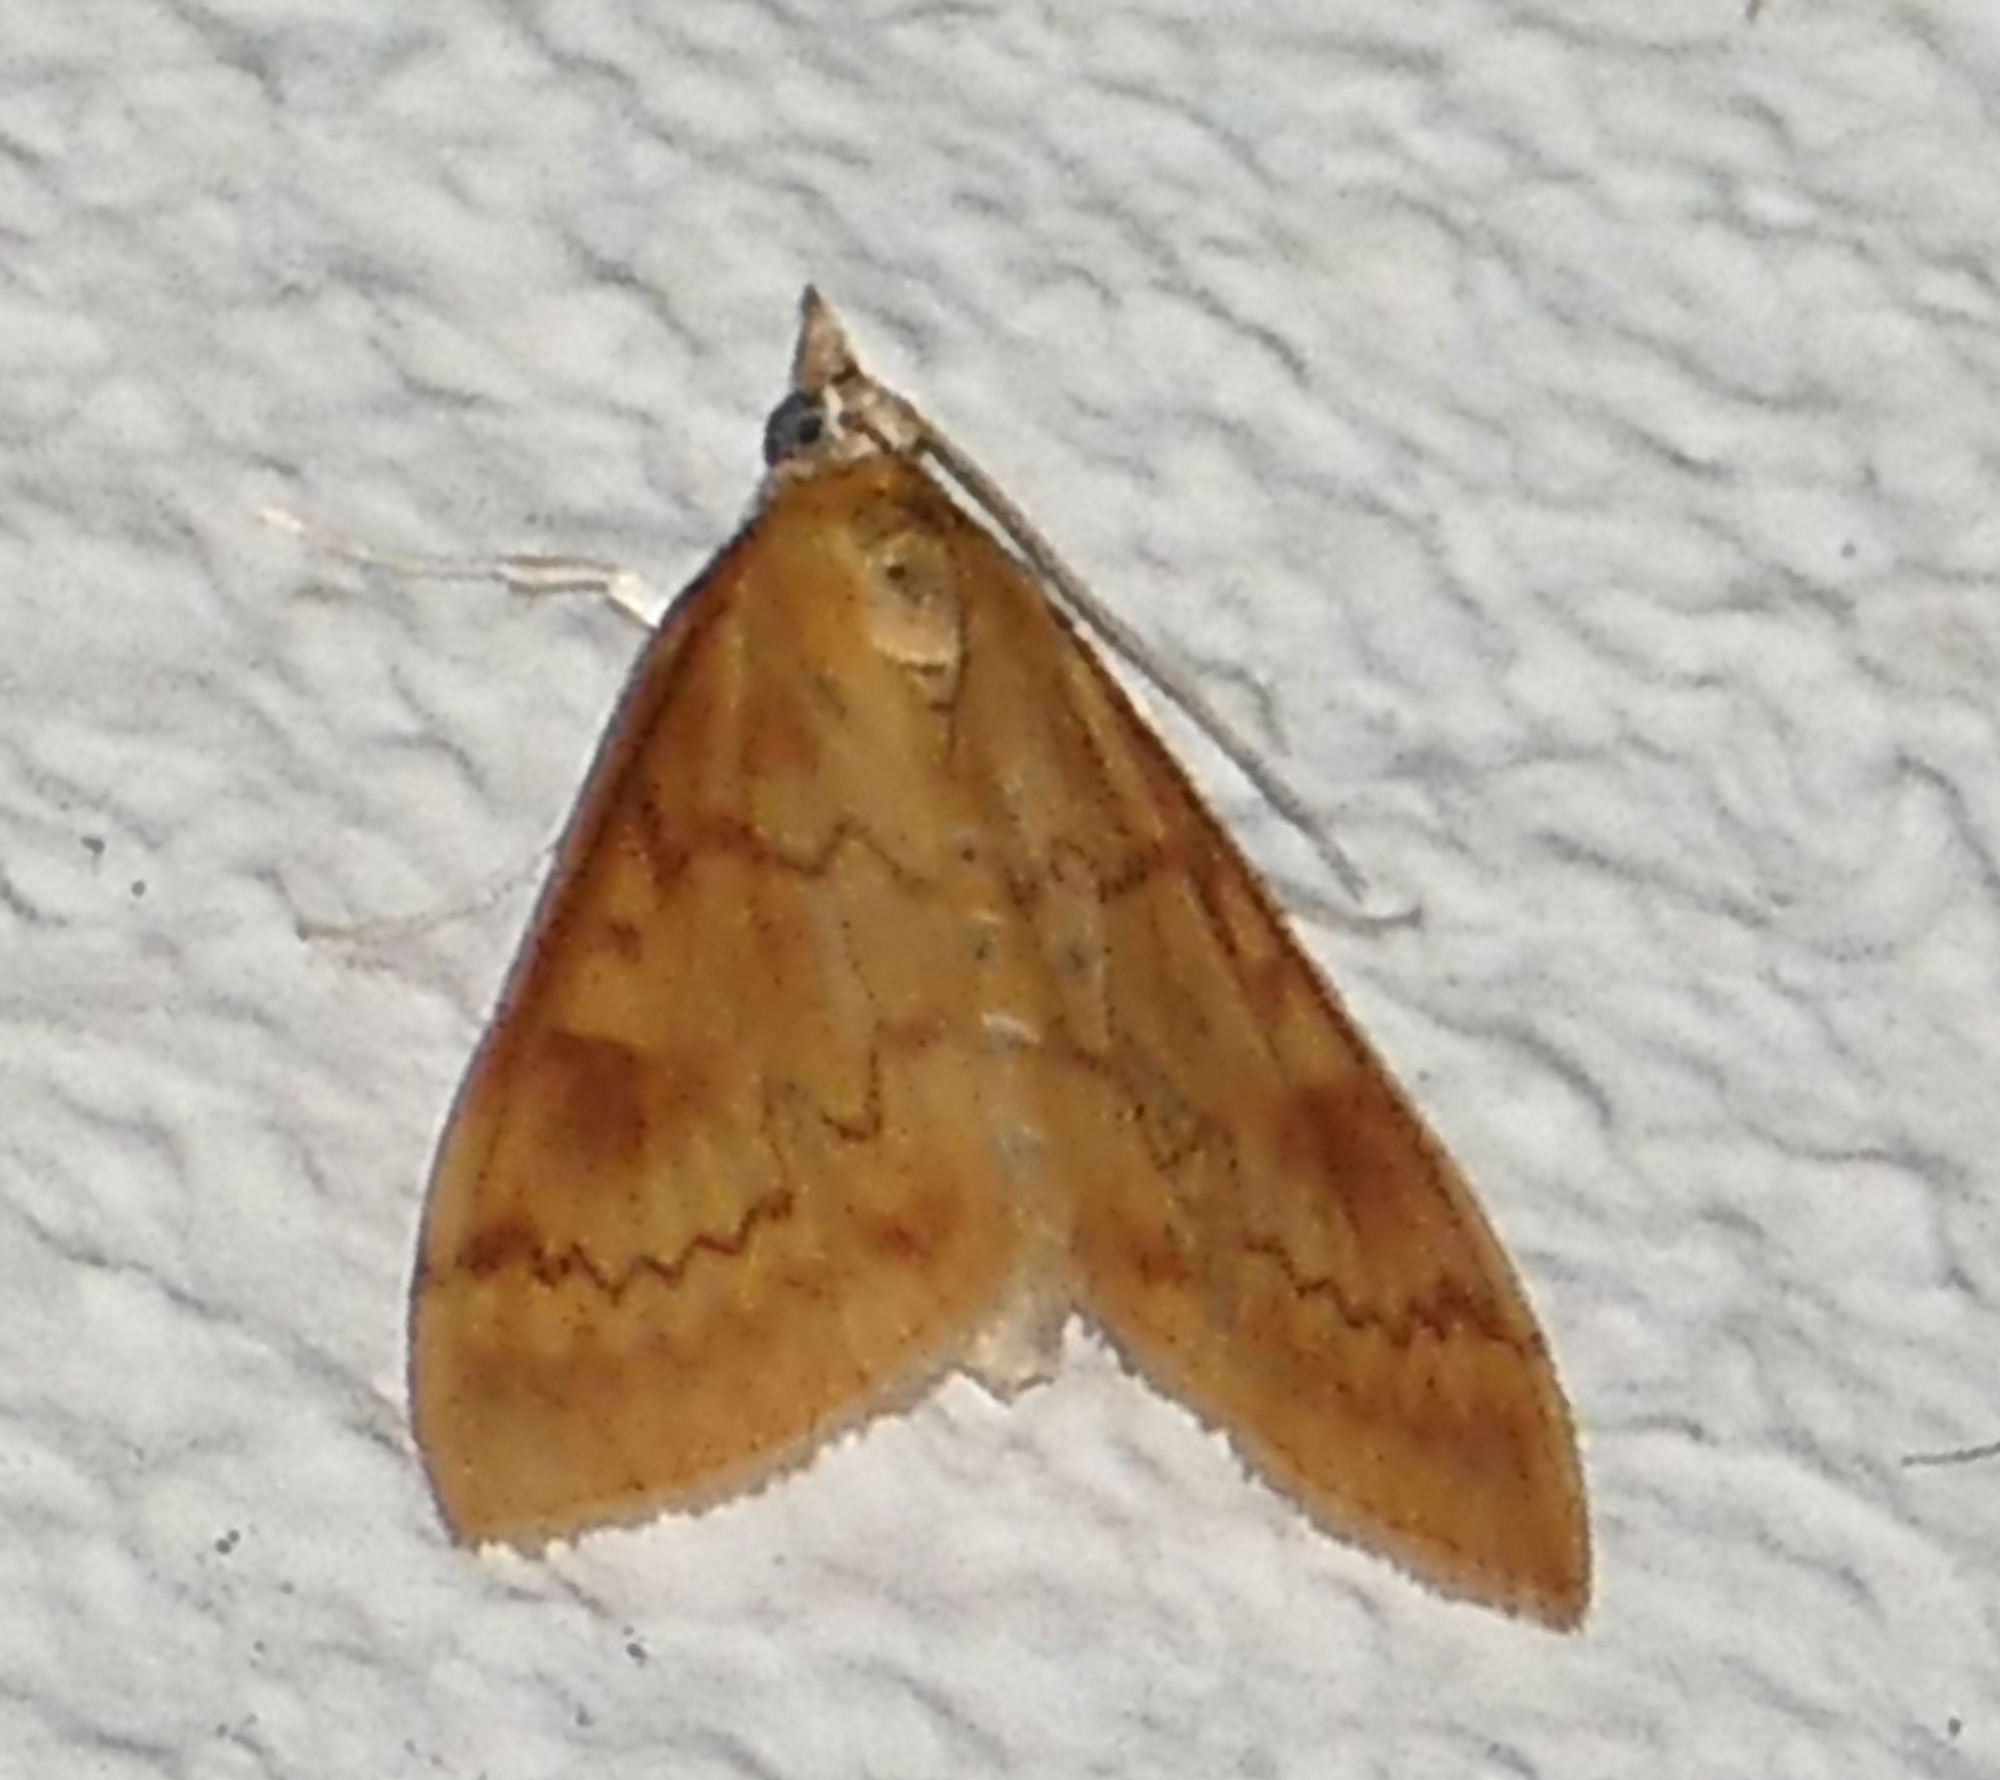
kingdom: Animalia
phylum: Arthropoda
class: Insecta
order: Lepidoptera
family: Crambidae
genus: Ostrinia
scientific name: Ostrinia penitalis
